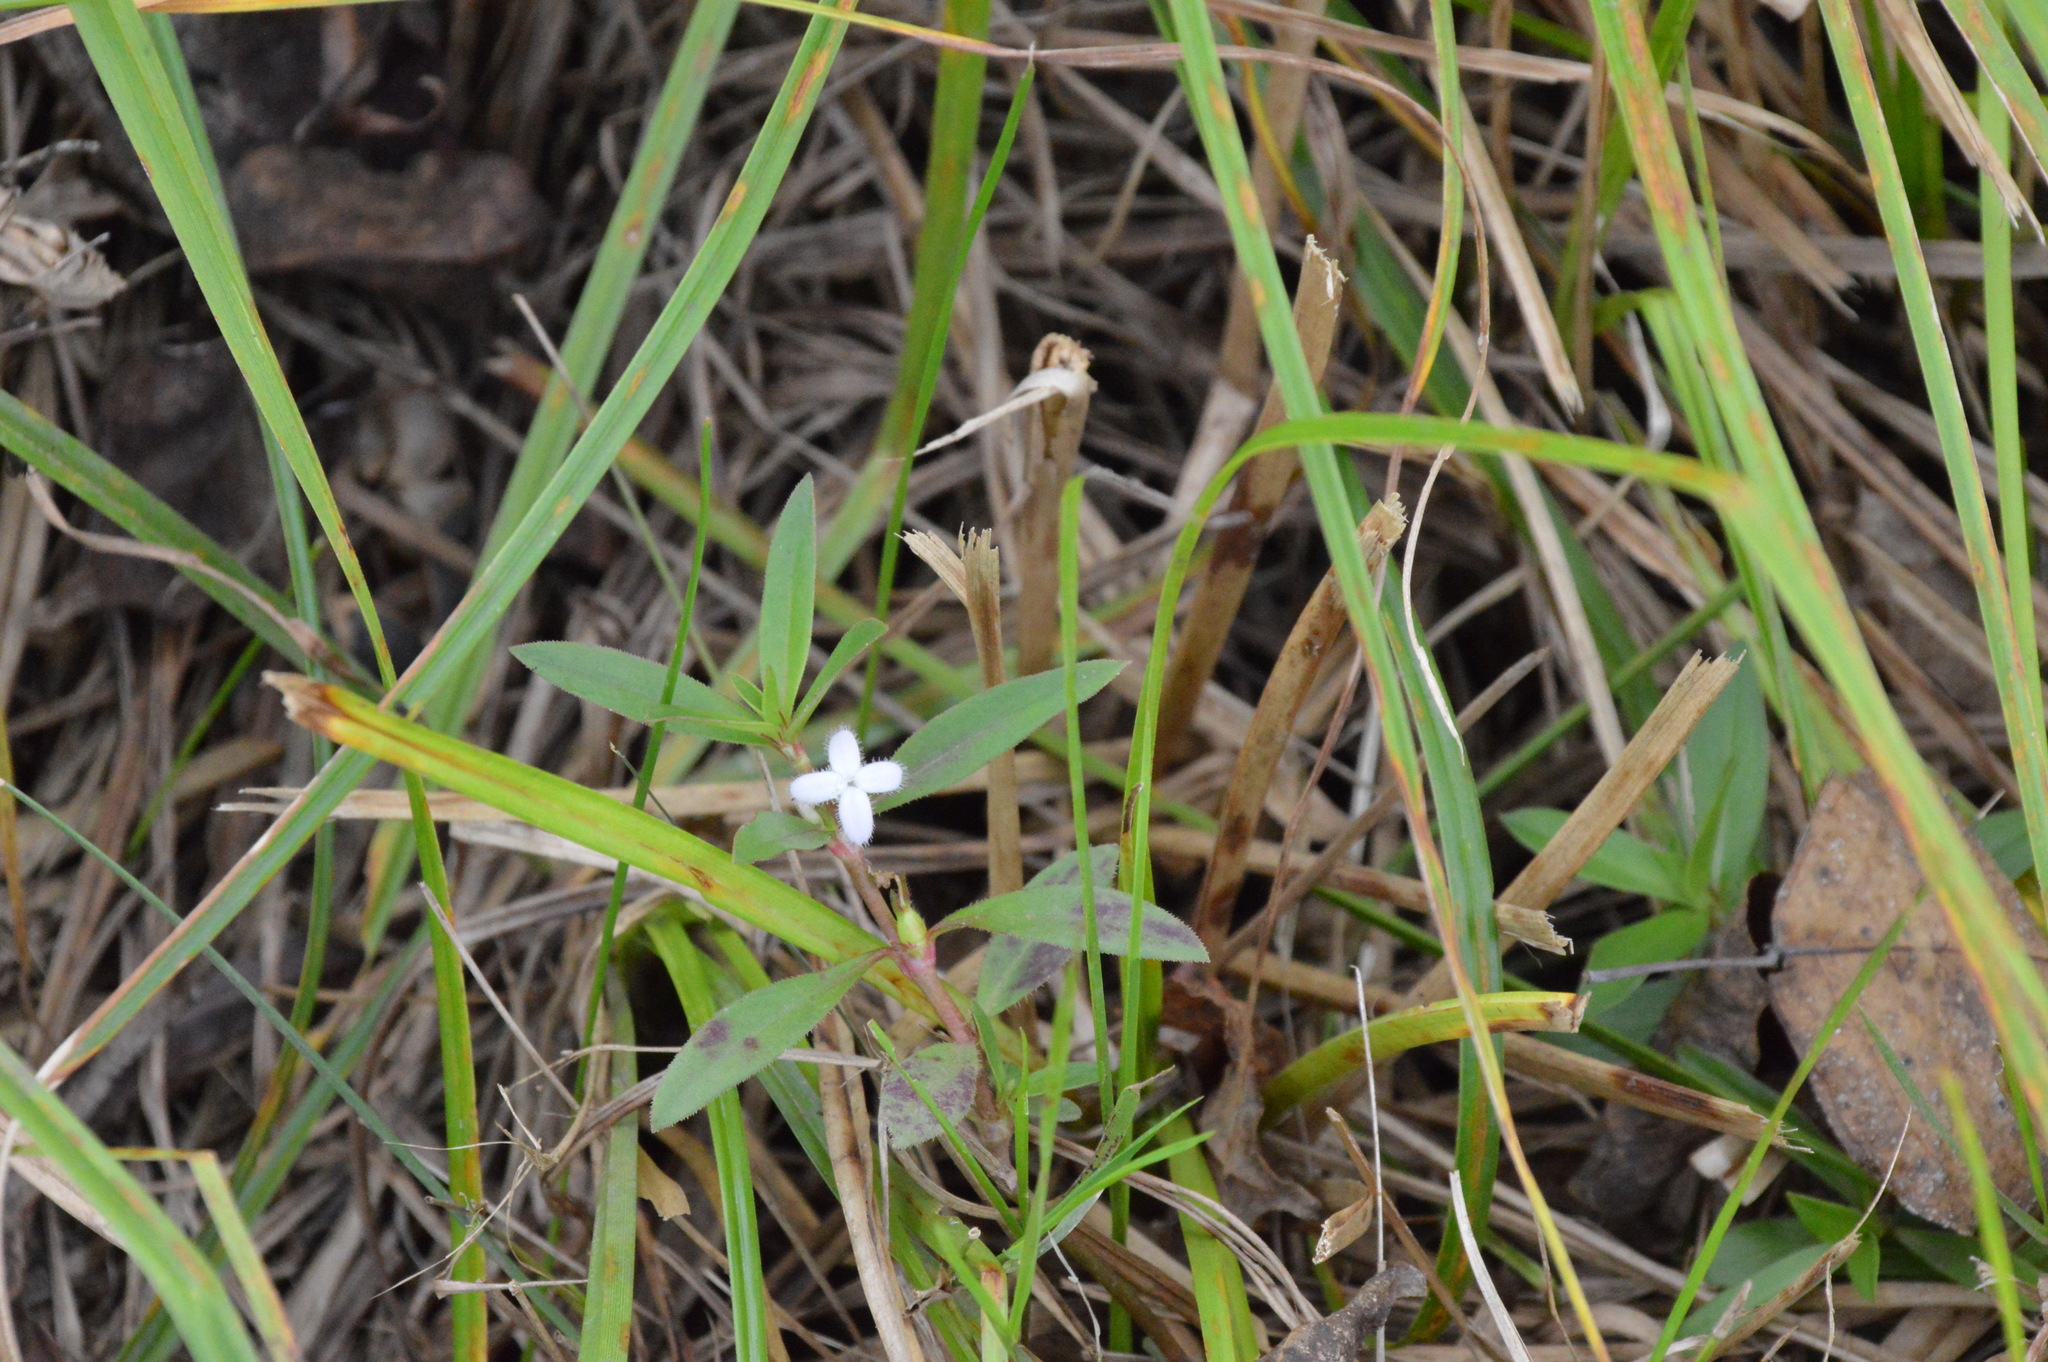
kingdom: Plantae
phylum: Tracheophyta
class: Magnoliopsida
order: Gentianales
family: Rubiaceae
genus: Diodia
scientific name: Diodia virginiana
